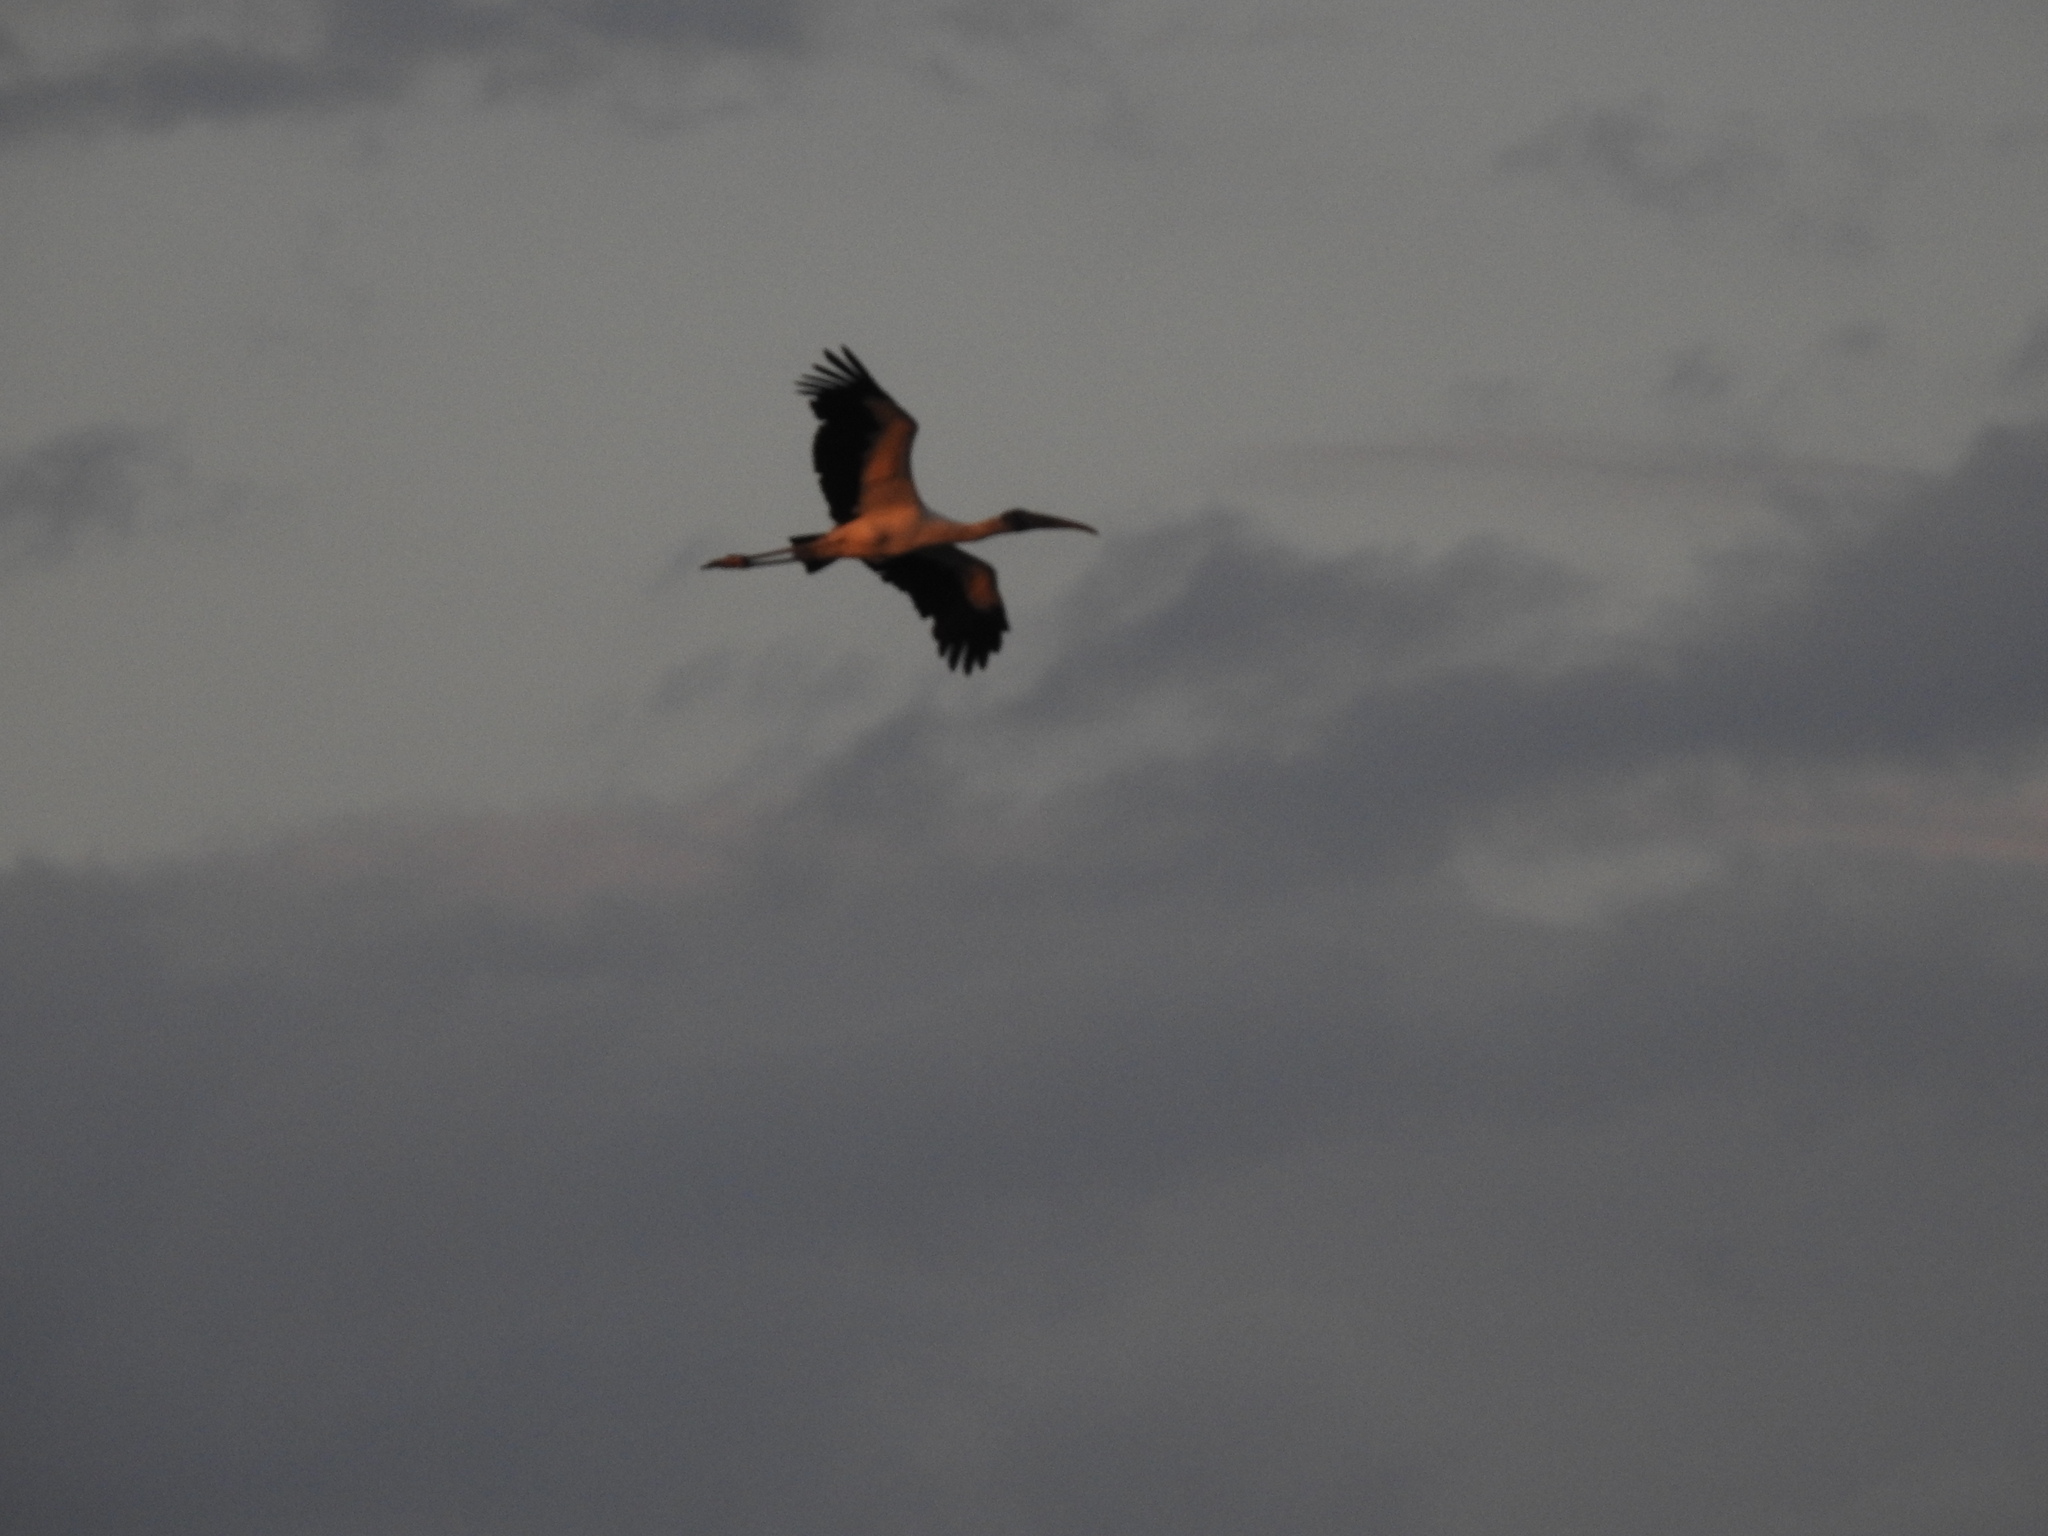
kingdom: Animalia
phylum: Chordata
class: Aves
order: Ciconiiformes
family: Ciconiidae
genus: Jabiru
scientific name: Jabiru mycteria
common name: Jabiru
